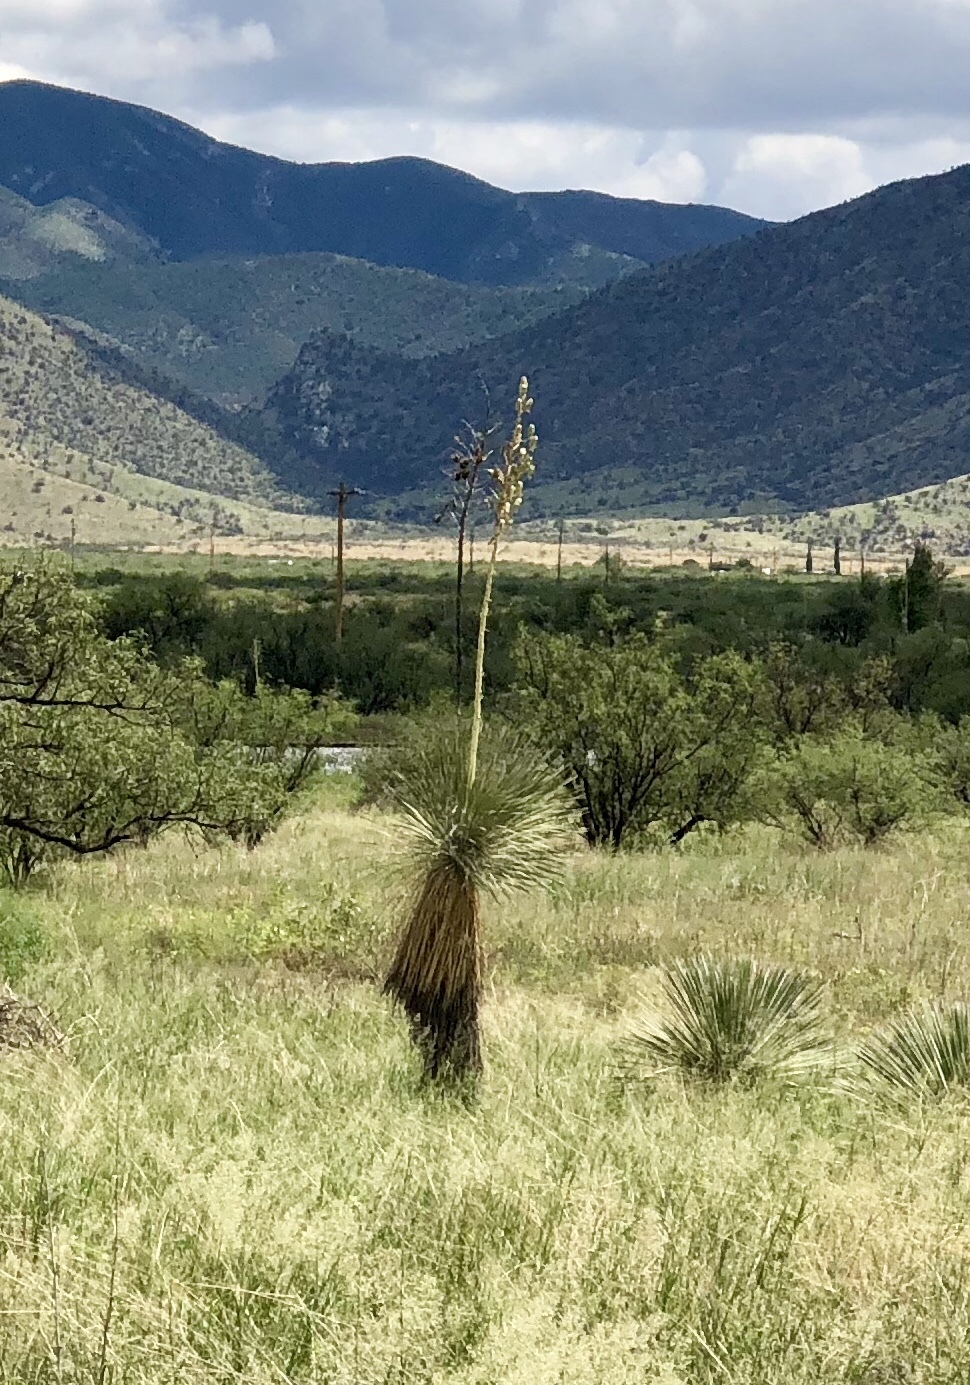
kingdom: Plantae
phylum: Tracheophyta
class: Liliopsida
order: Asparagales
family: Asparagaceae
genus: Yucca
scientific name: Yucca elata
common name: Palmella
